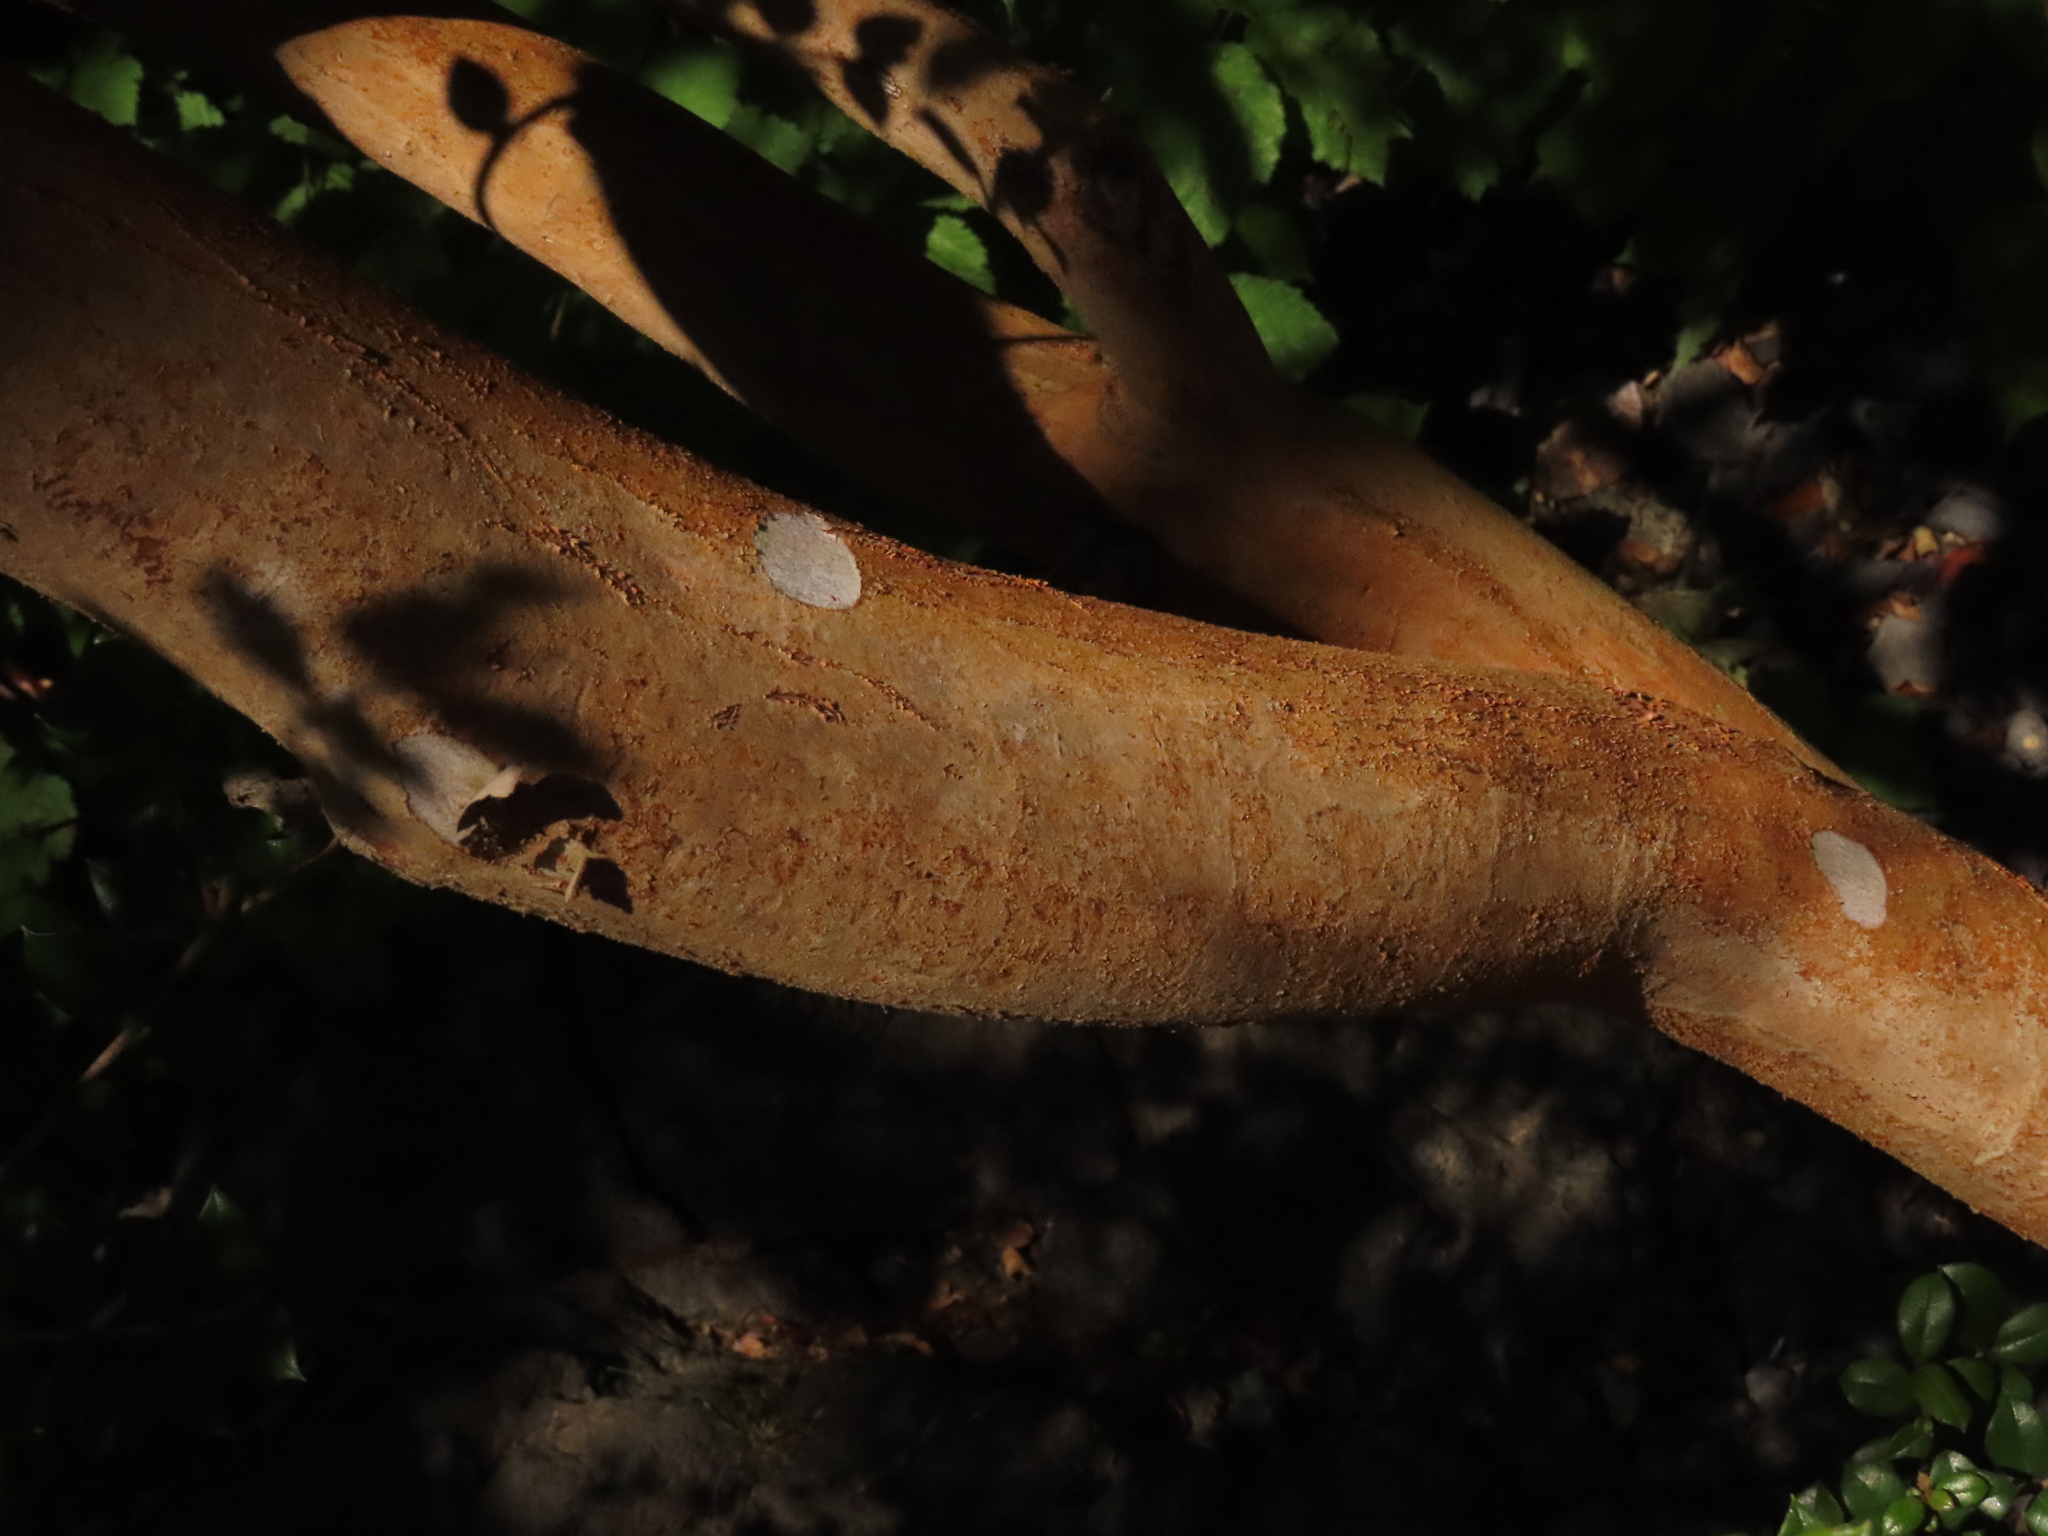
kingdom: Plantae
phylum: Tracheophyta
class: Magnoliopsida
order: Myrtales
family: Myrtaceae
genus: Luma
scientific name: Luma apiculata
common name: Chilean myrtle
